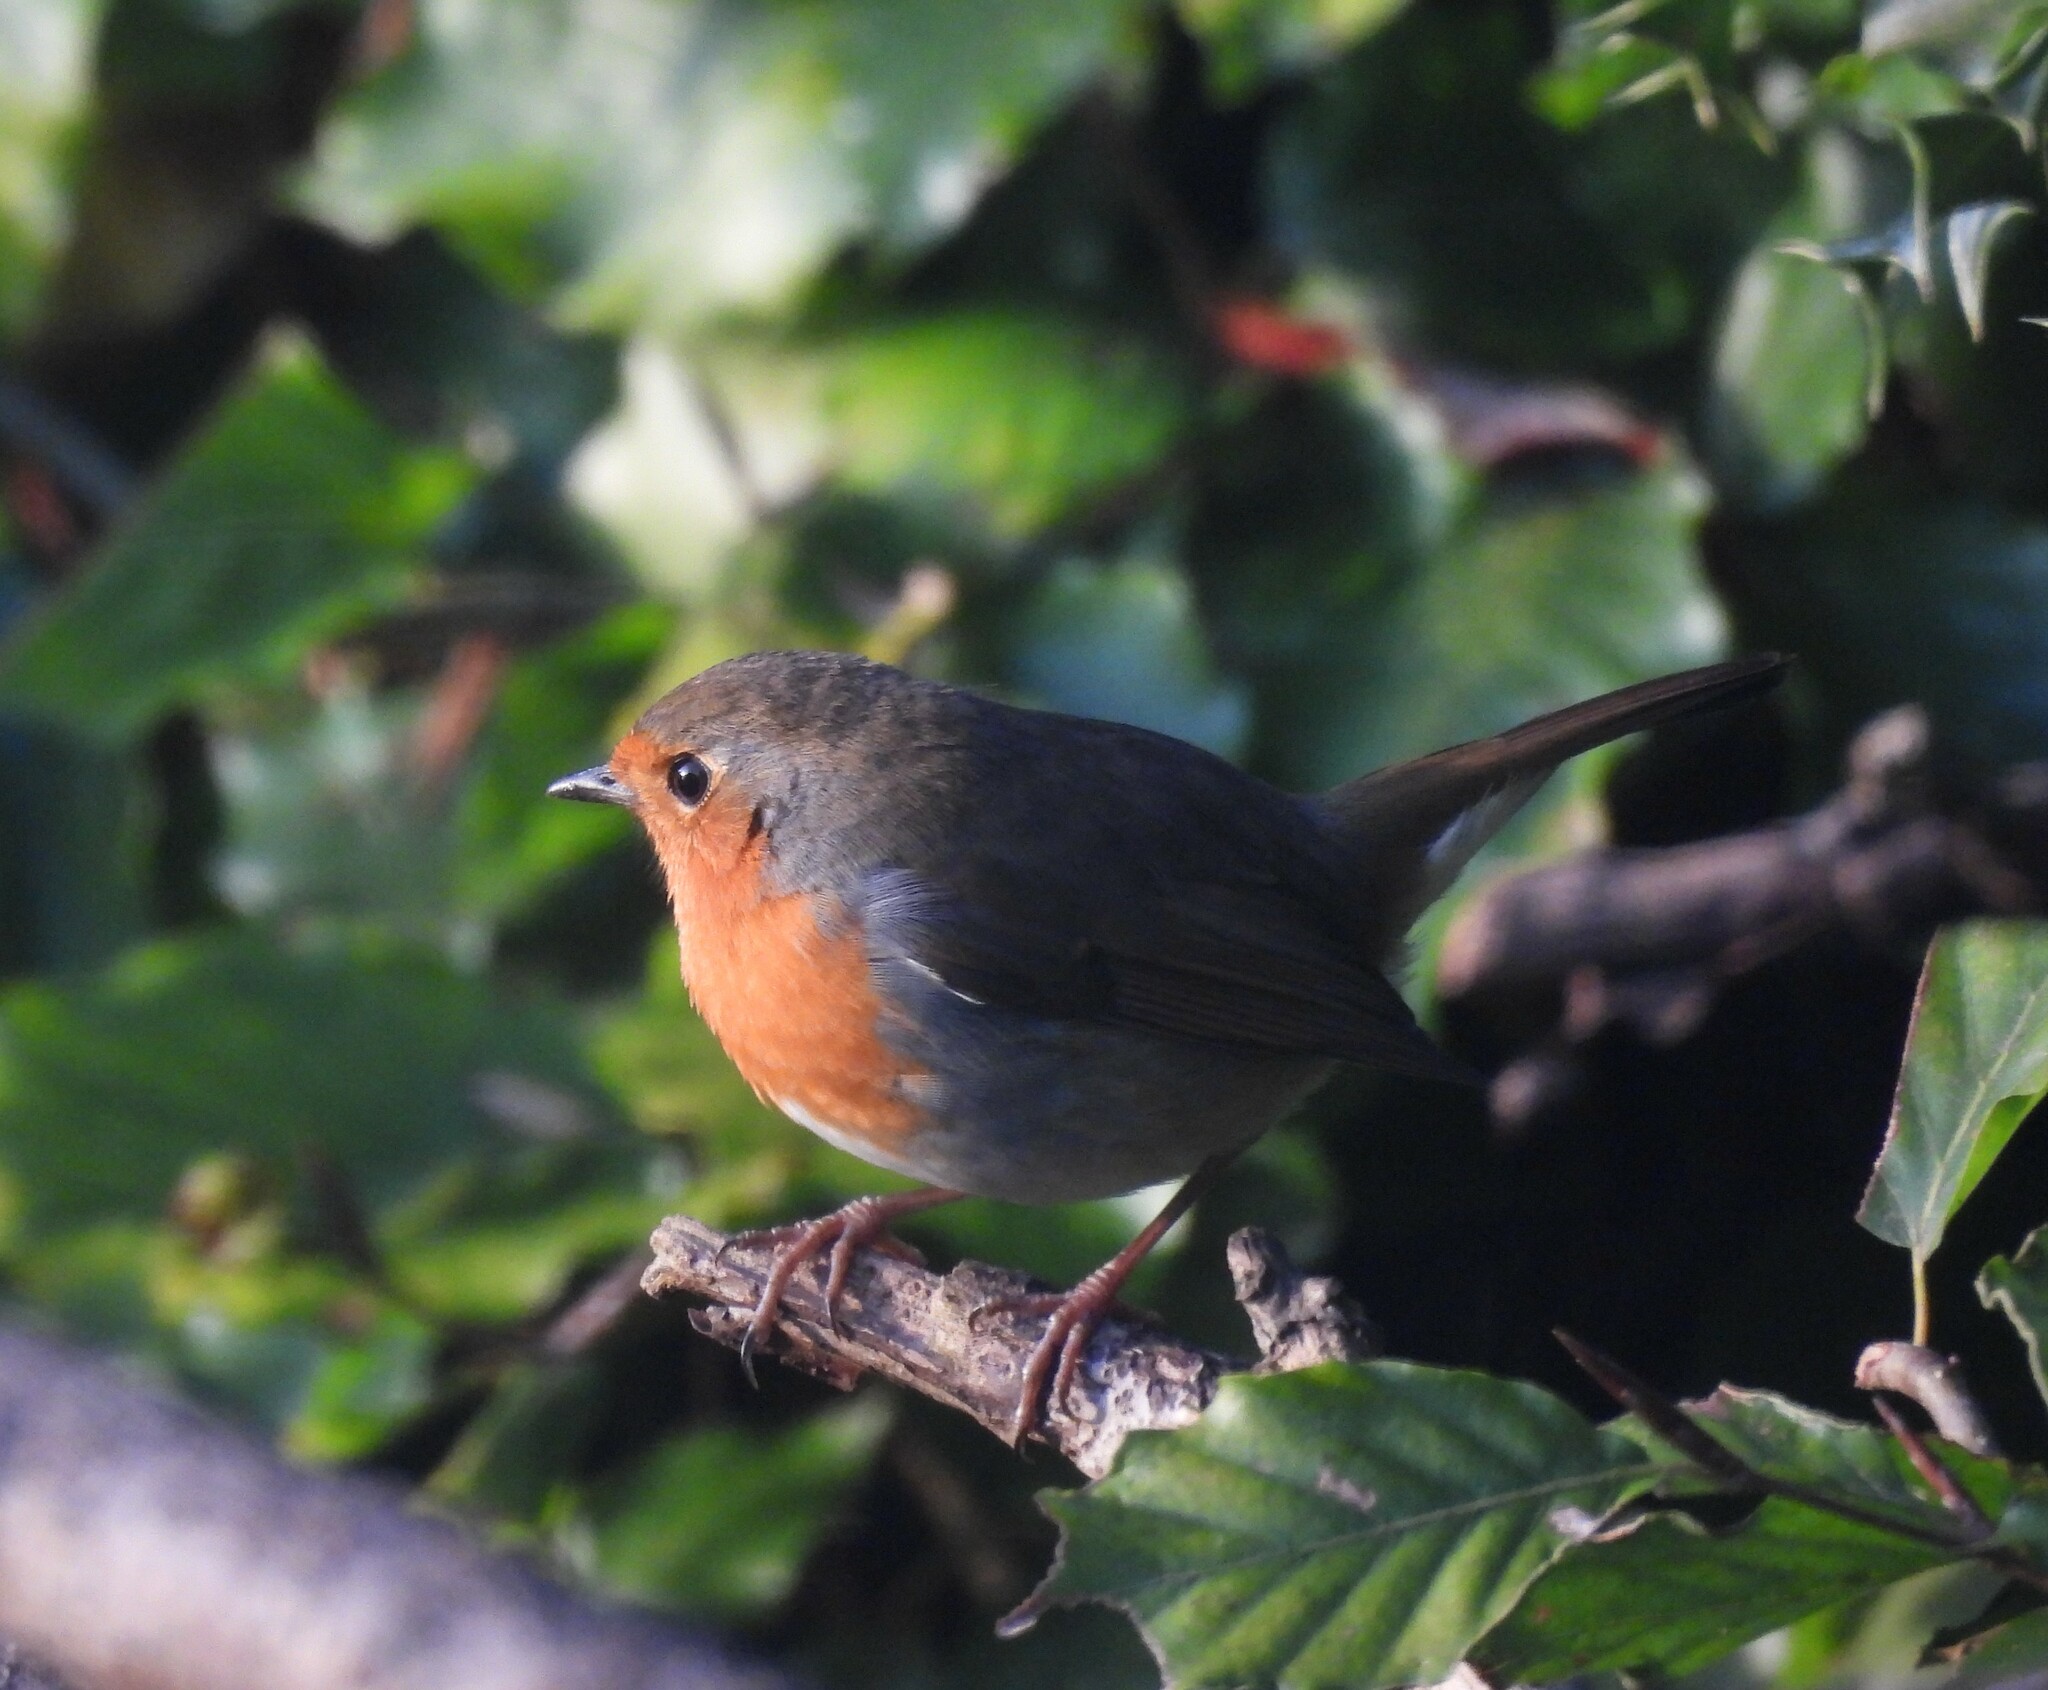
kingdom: Animalia
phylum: Chordata
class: Aves
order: Passeriformes
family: Muscicapidae
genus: Erithacus
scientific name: Erithacus rubecula
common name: European robin
